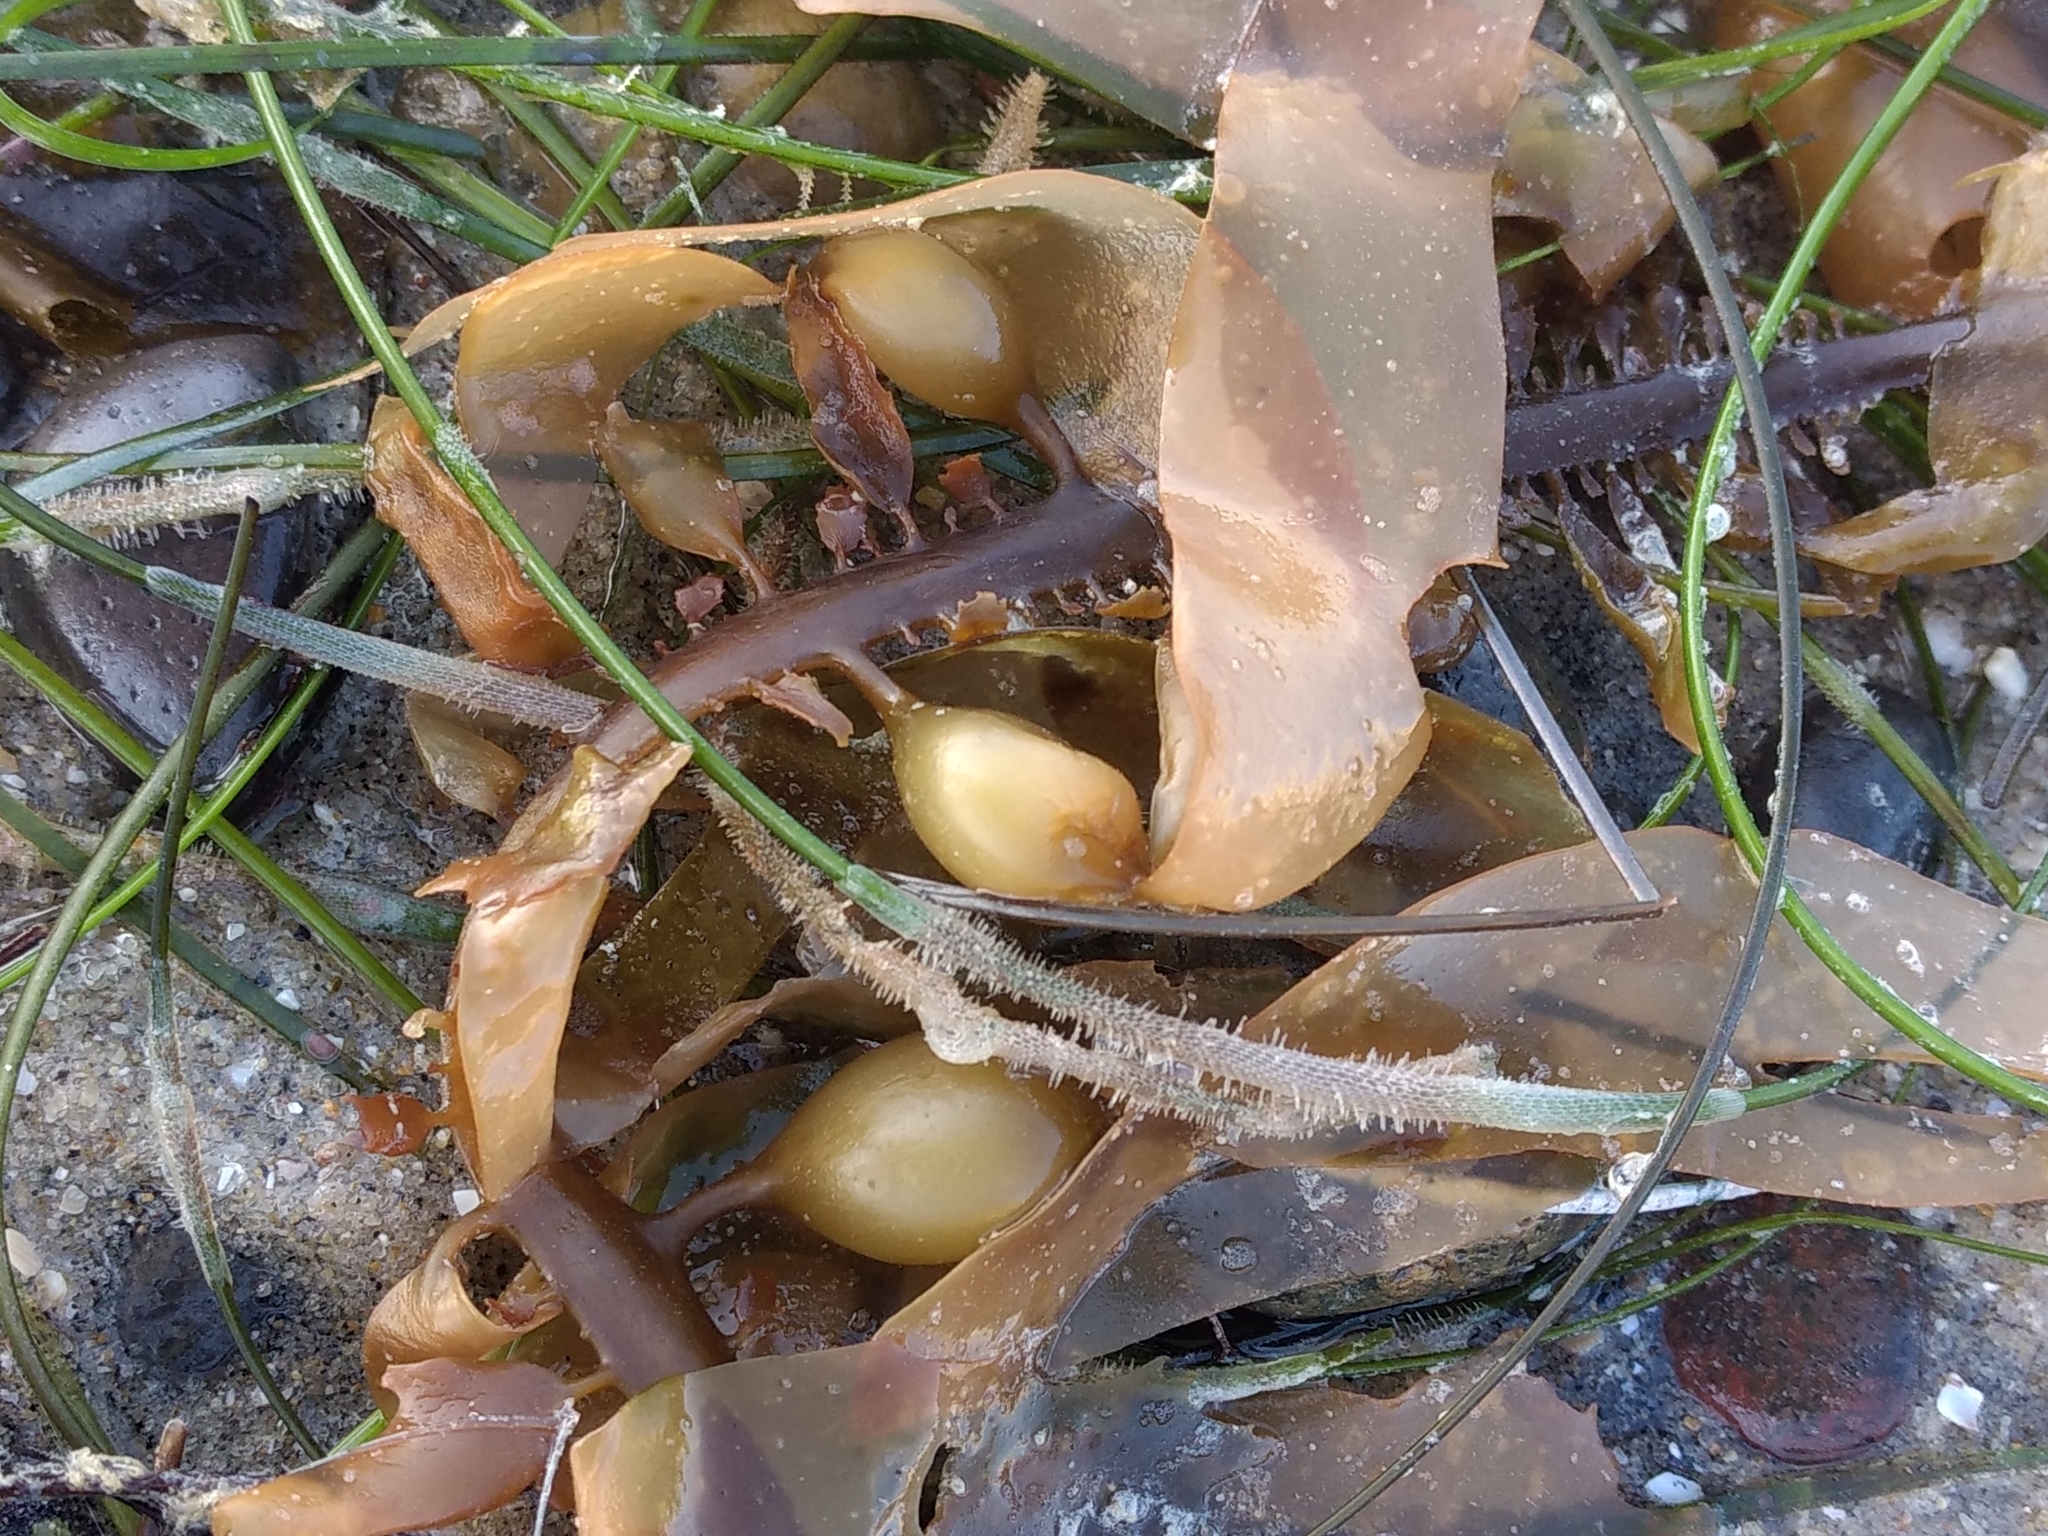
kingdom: Chromista
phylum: Ochrophyta
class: Phaeophyceae
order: Laminariales
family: Lessoniaceae
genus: Egregia
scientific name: Egregia menziesii
